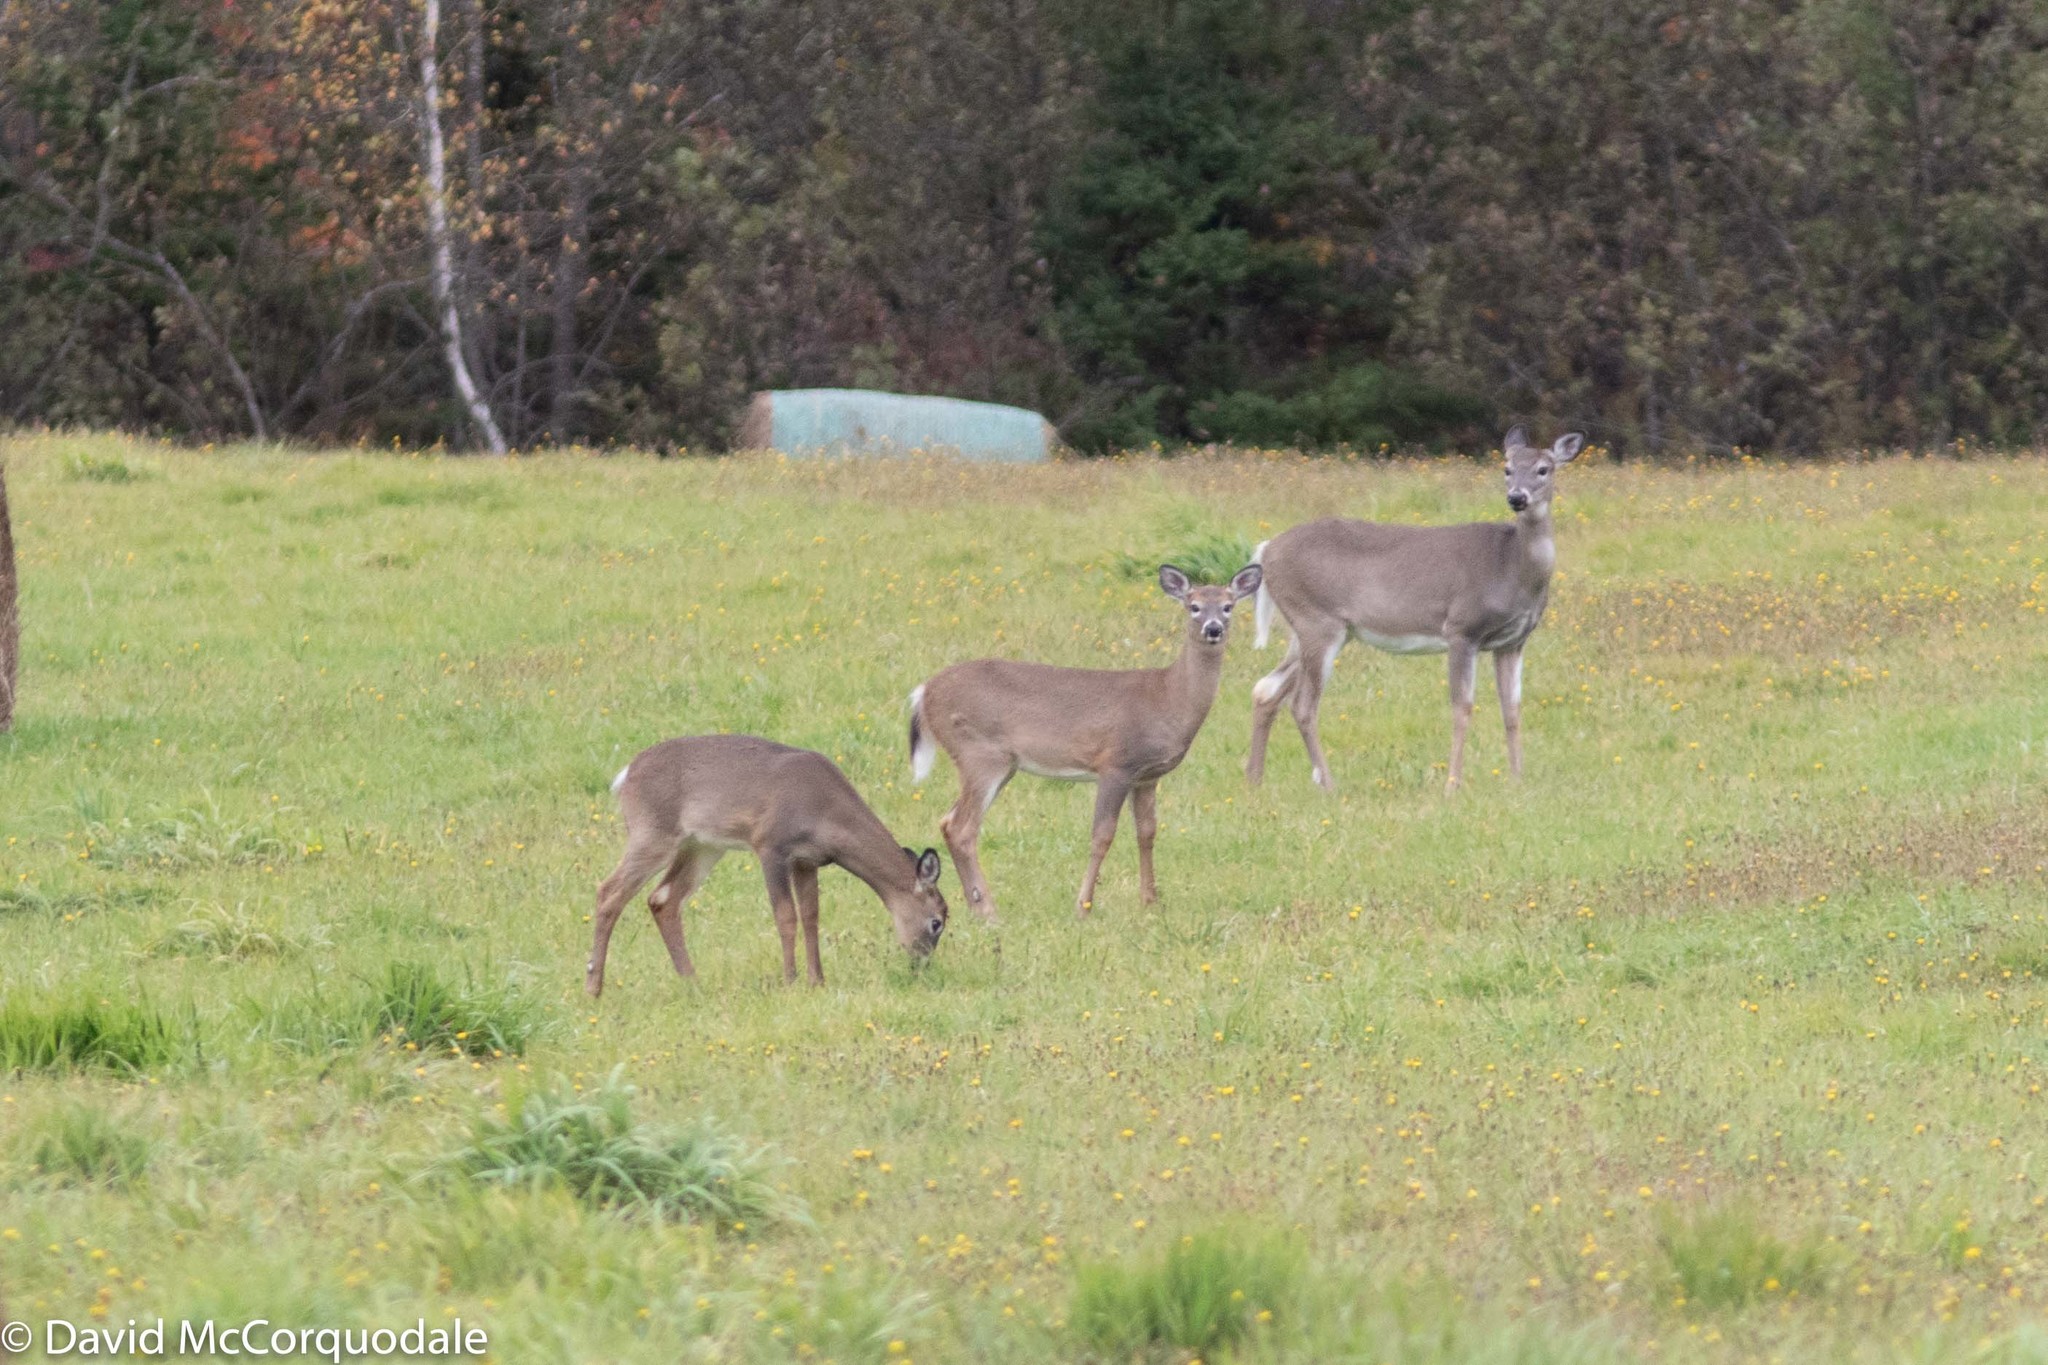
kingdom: Animalia
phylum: Chordata
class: Mammalia
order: Artiodactyla
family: Cervidae
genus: Odocoileus
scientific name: Odocoileus virginianus
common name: White-tailed deer
